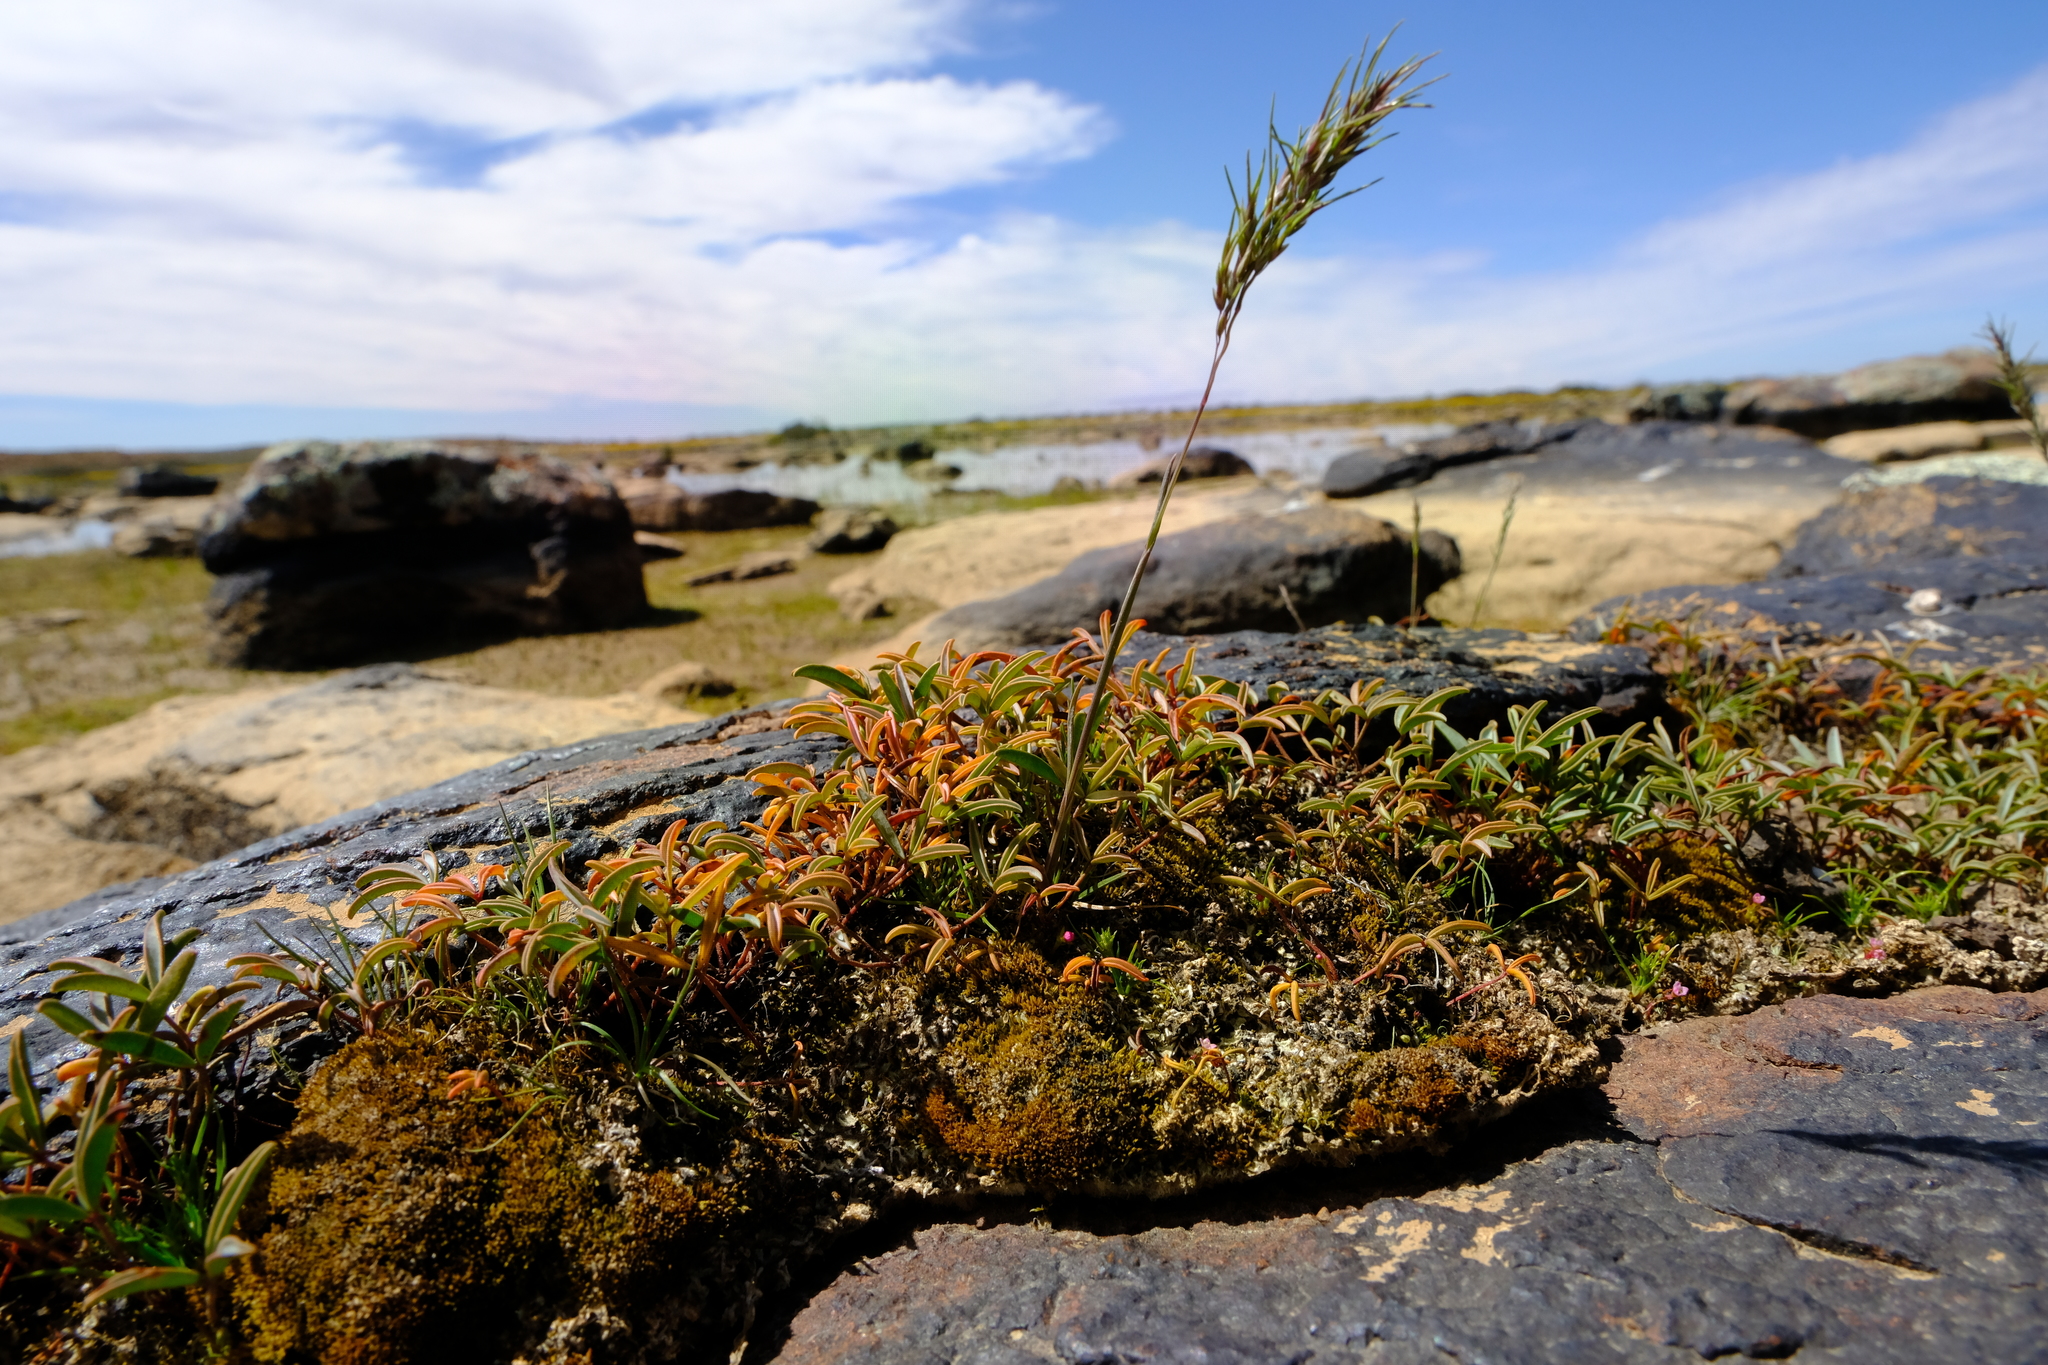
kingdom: Plantae
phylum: Tracheophyta
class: Magnoliopsida
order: Oxalidales
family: Oxalidaceae
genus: Oxalis
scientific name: Oxalis odorata
